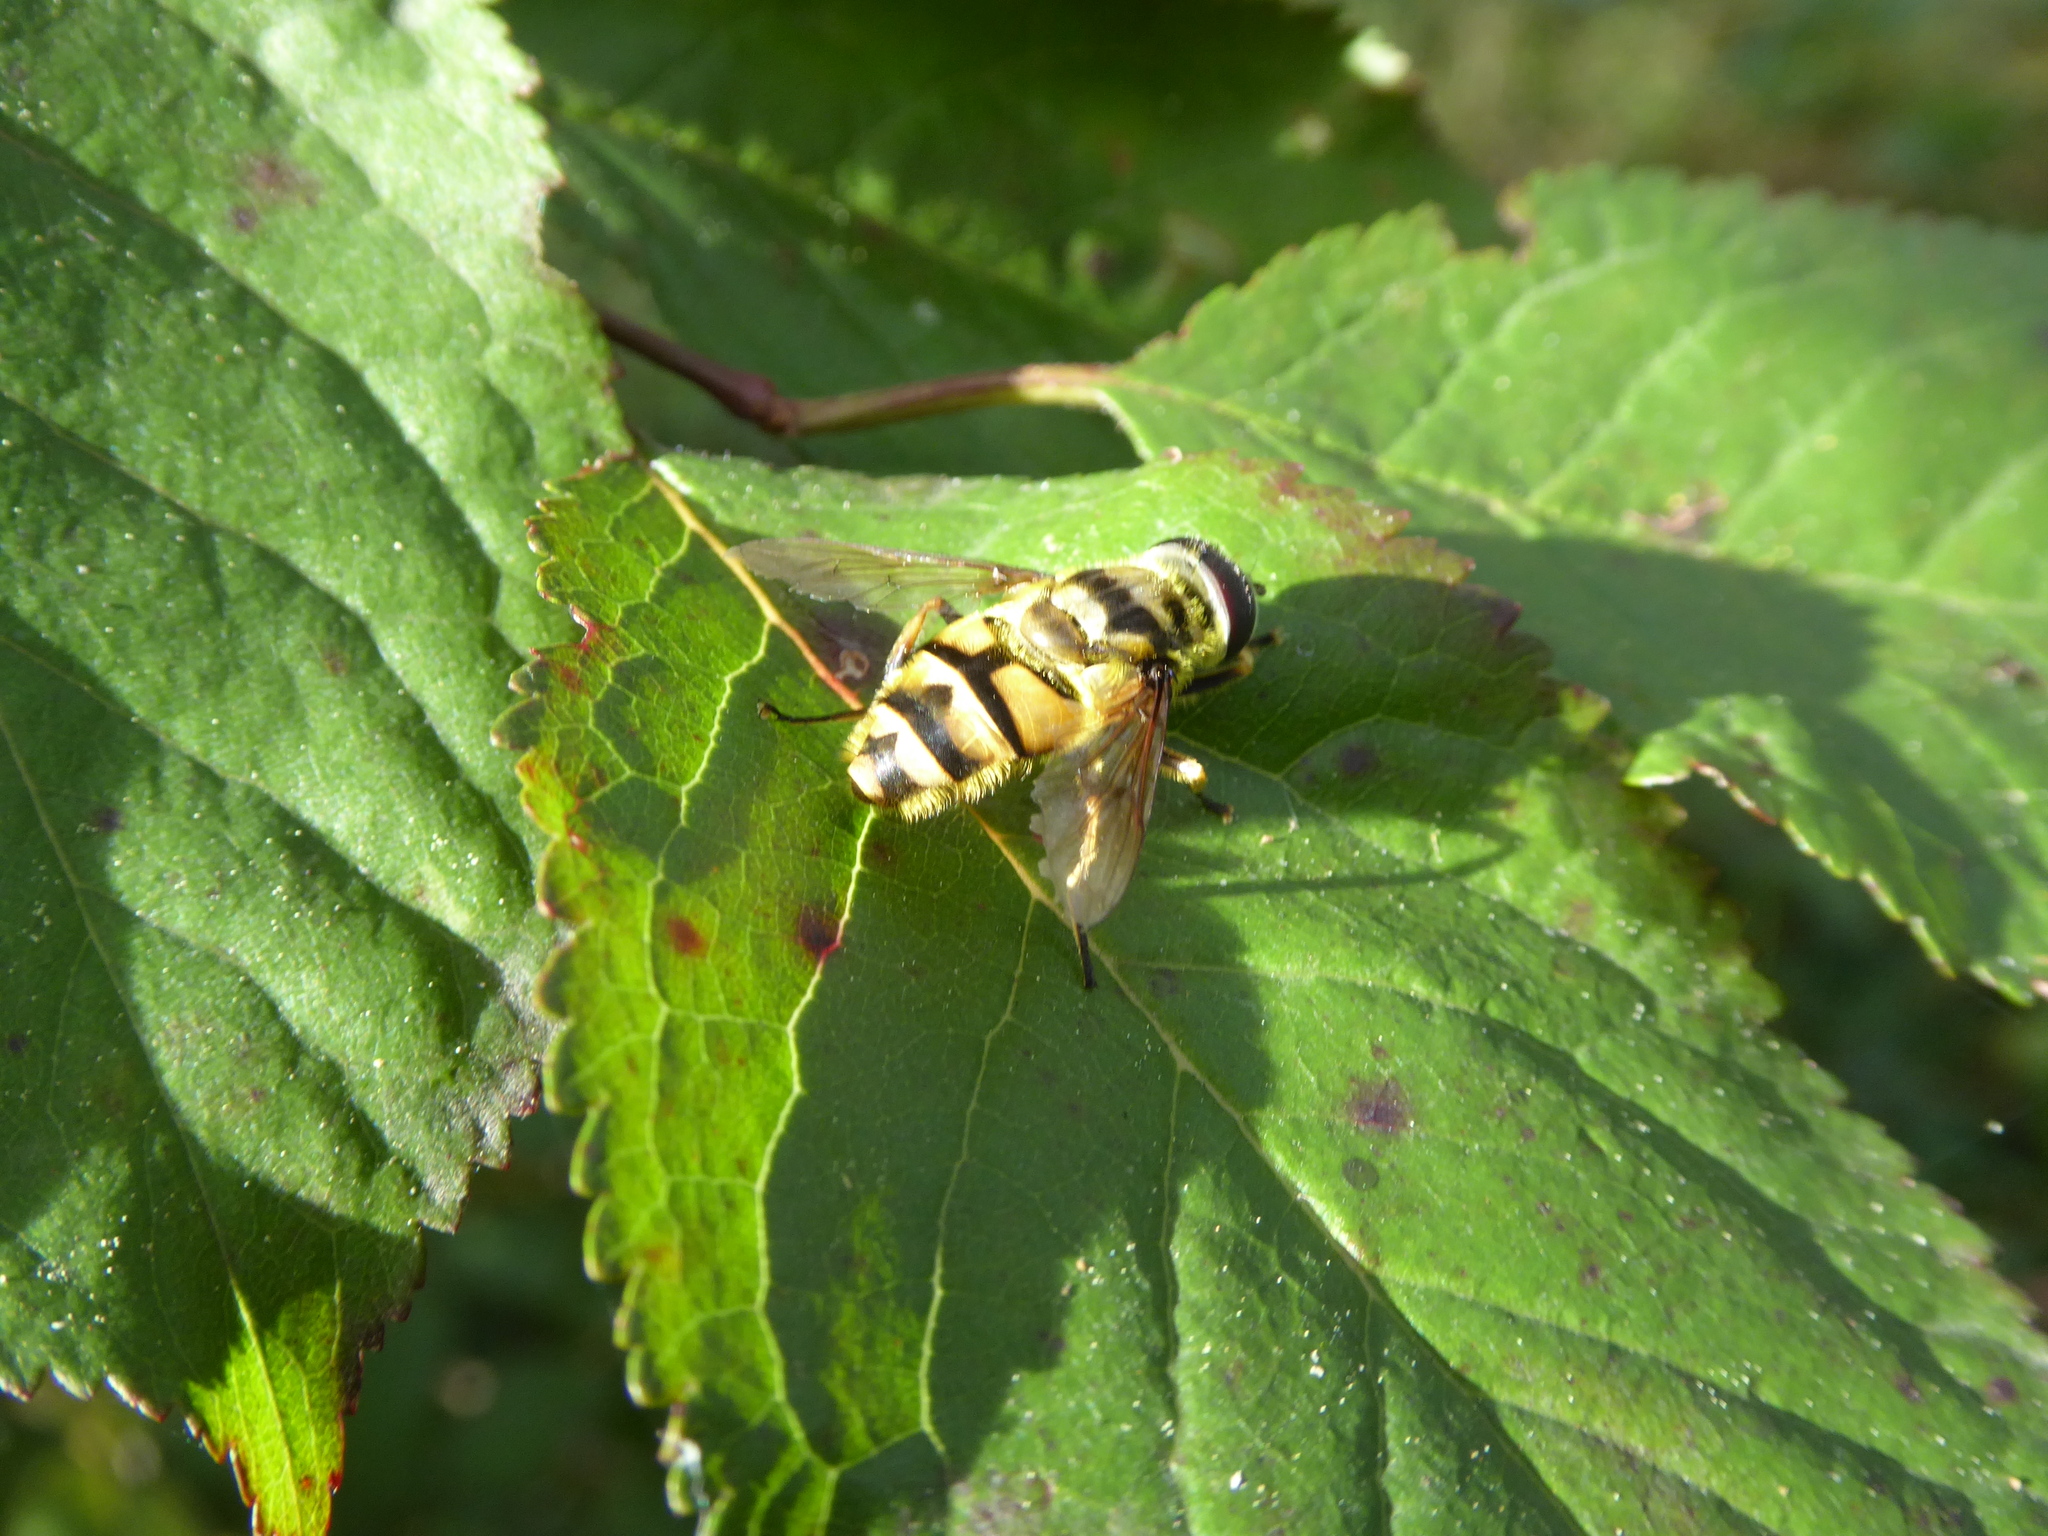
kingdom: Animalia
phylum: Arthropoda
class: Insecta
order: Diptera
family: Syrphidae
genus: Myathropa
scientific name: Myathropa florea
